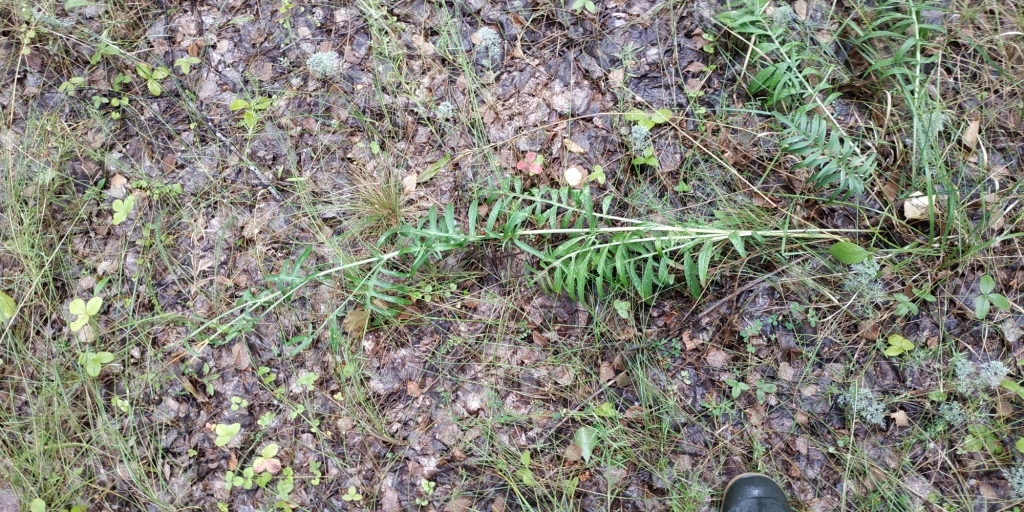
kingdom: Plantae
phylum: Tracheophyta
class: Magnoliopsida
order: Asterales
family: Asteraceae
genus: Centaurea
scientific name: Centaurea scabiosa
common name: Greater knapweed
